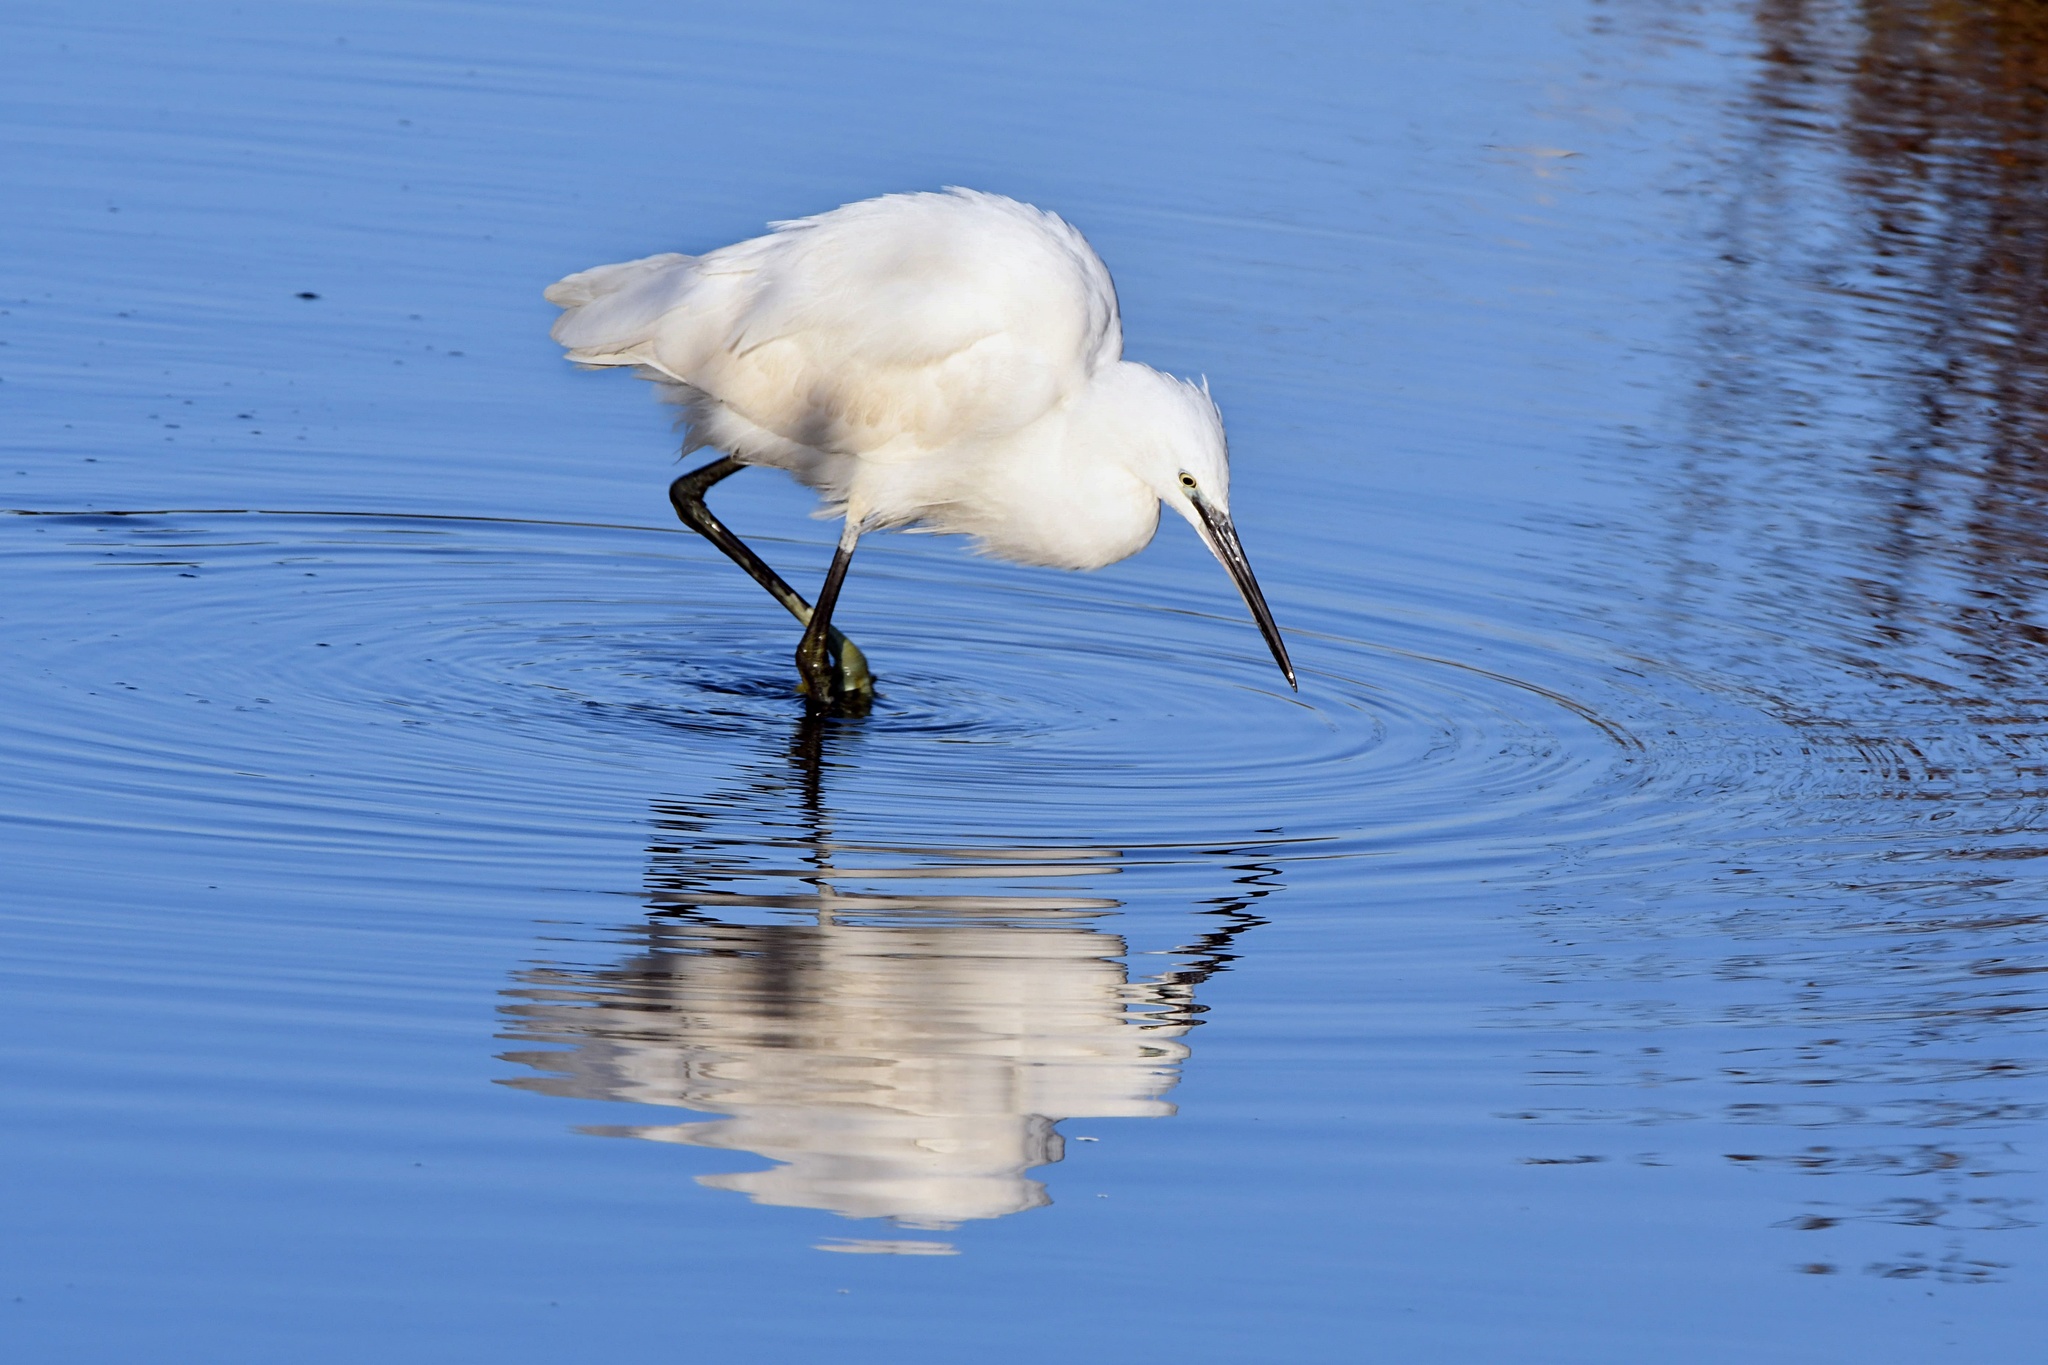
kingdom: Animalia
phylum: Chordata
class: Aves
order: Pelecaniformes
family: Ardeidae
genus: Egretta
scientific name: Egretta garzetta
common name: Little egret
